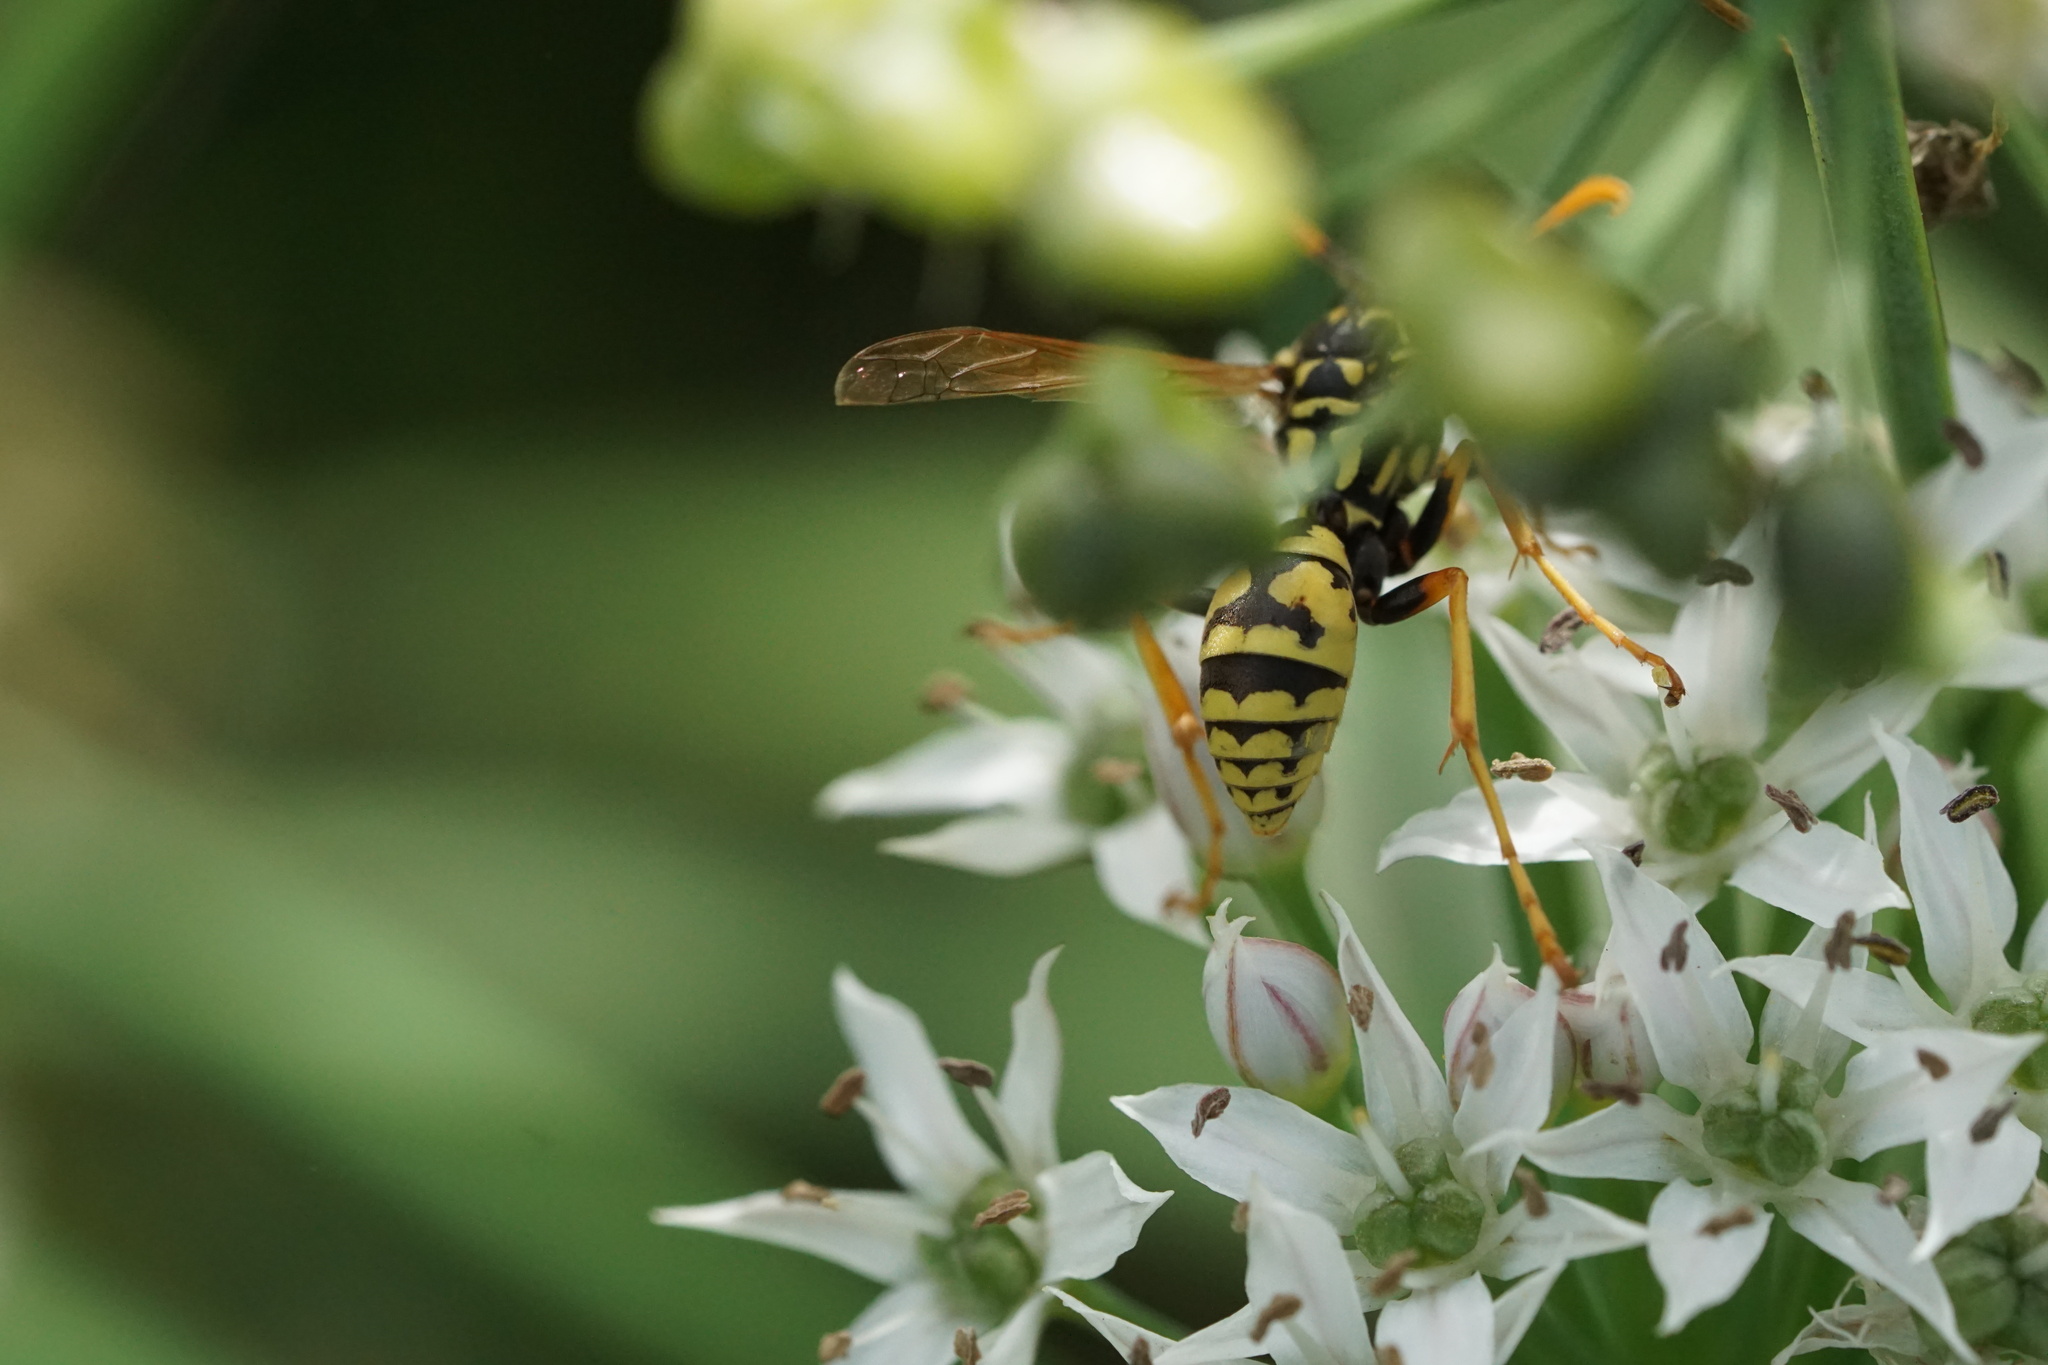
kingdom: Animalia
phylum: Arthropoda
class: Insecta
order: Hymenoptera
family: Eumenidae
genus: Polistes
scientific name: Polistes dominula
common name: Paper wasp
